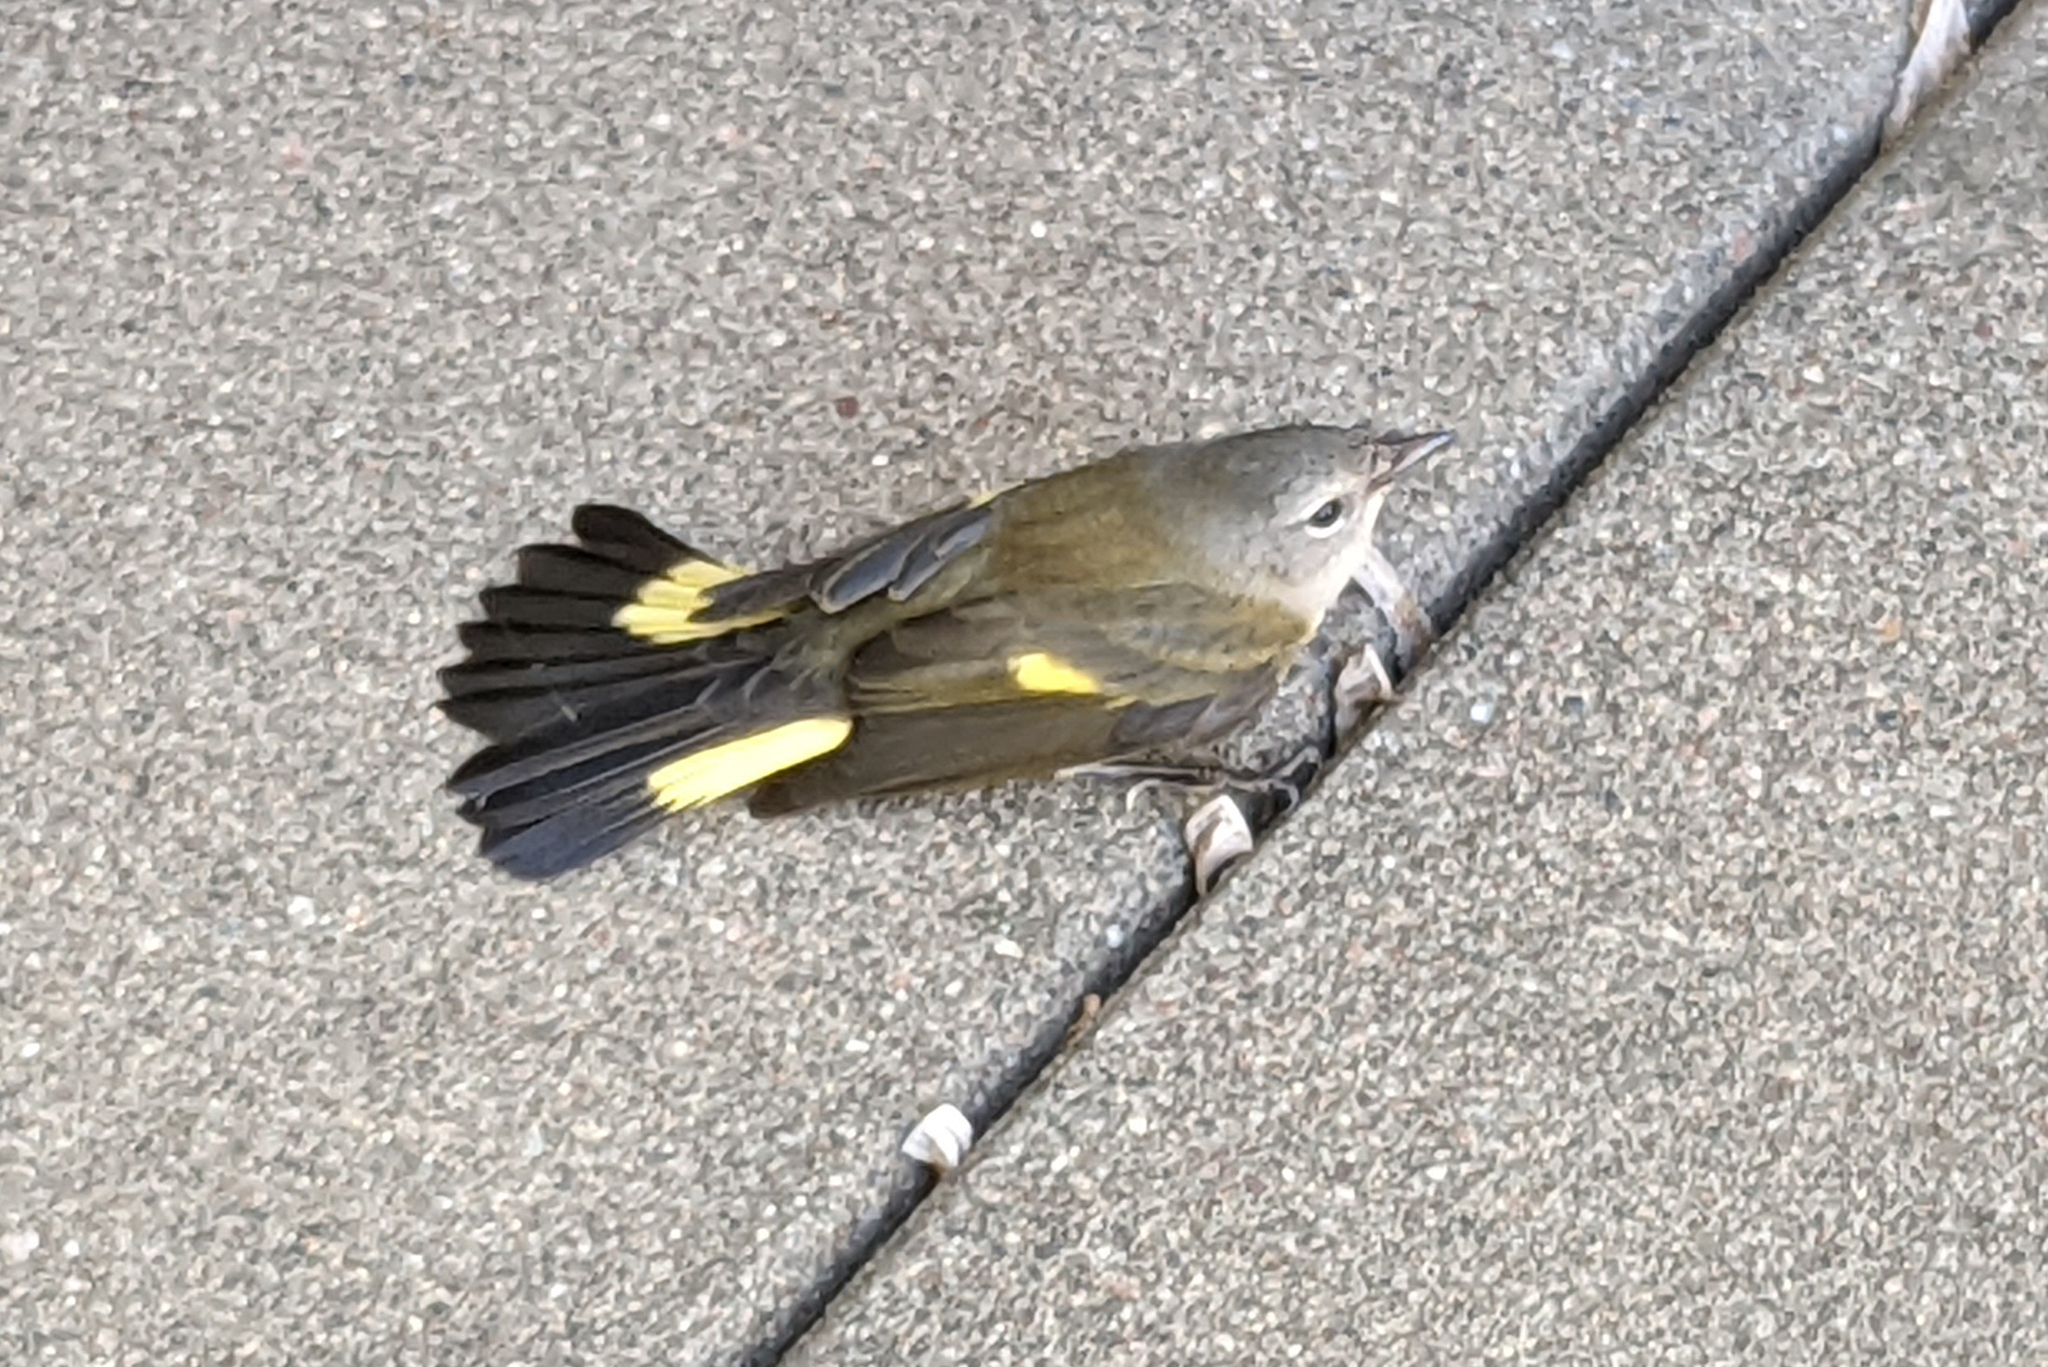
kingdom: Animalia
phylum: Chordata
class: Aves
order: Passeriformes
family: Parulidae
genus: Setophaga
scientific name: Setophaga ruticilla
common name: American redstart
